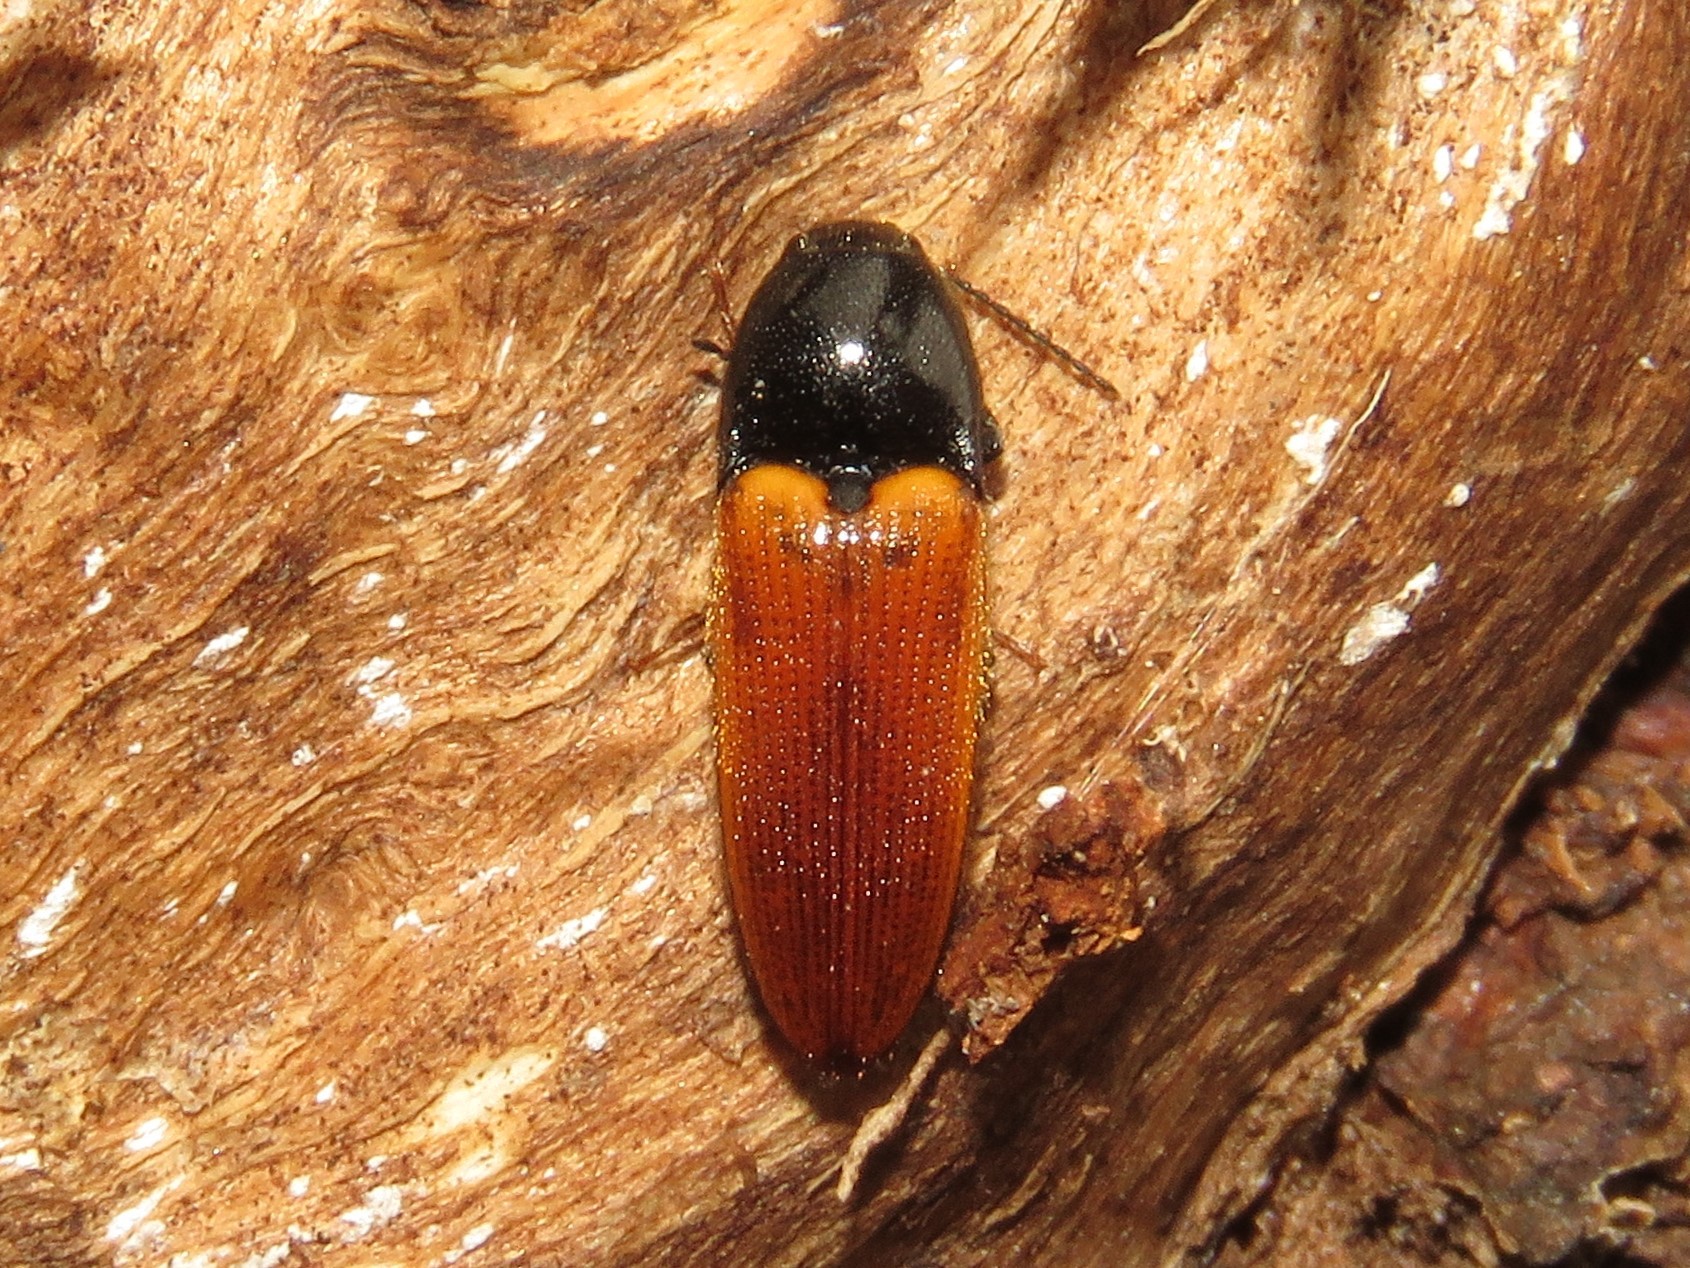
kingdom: Animalia
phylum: Arthropoda
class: Insecta
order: Coleoptera
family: Elateridae
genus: Ampedus
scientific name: Ampedus sanguinipennis
